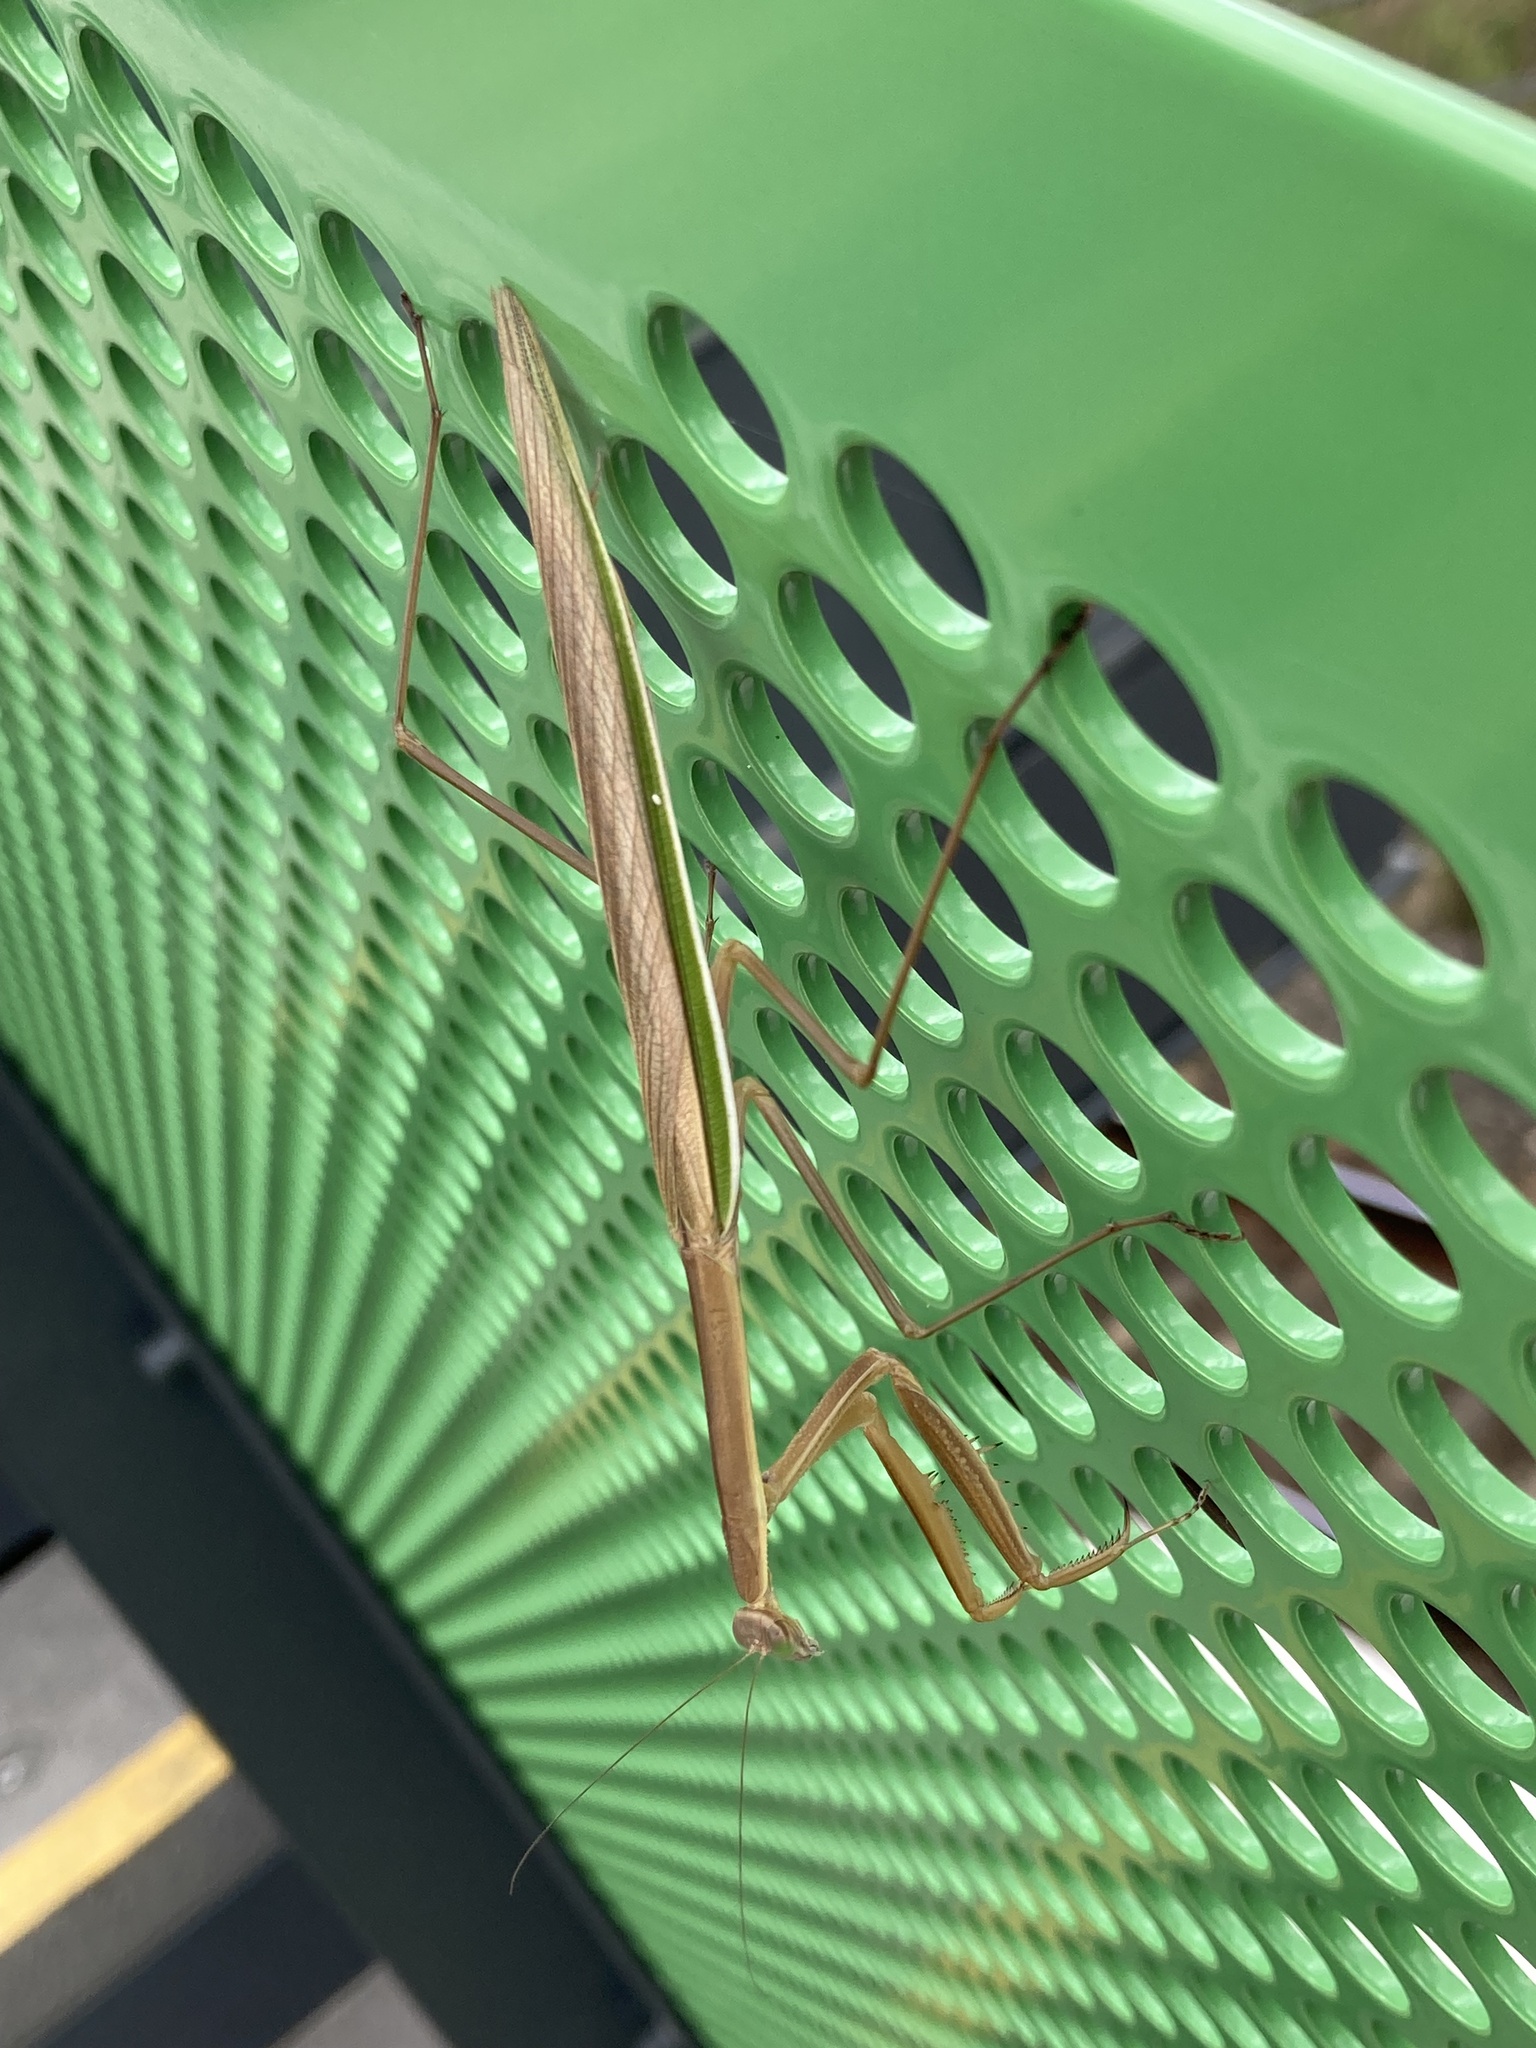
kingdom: Animalia
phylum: Arthropoda
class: Insecta
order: Mantodea
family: Mantidae
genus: Tenodera
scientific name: Tenodera australasiae
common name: Purple-winged mantis
